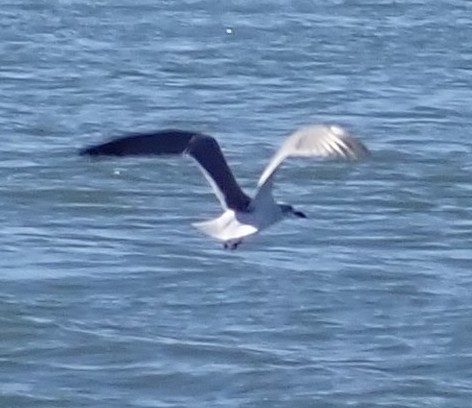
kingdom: Animalia
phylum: Chordata
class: Aves
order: Charadriiformes
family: Laridae
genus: Leucophaeus
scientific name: Leucophaeus atricilla
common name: Laughing gull
